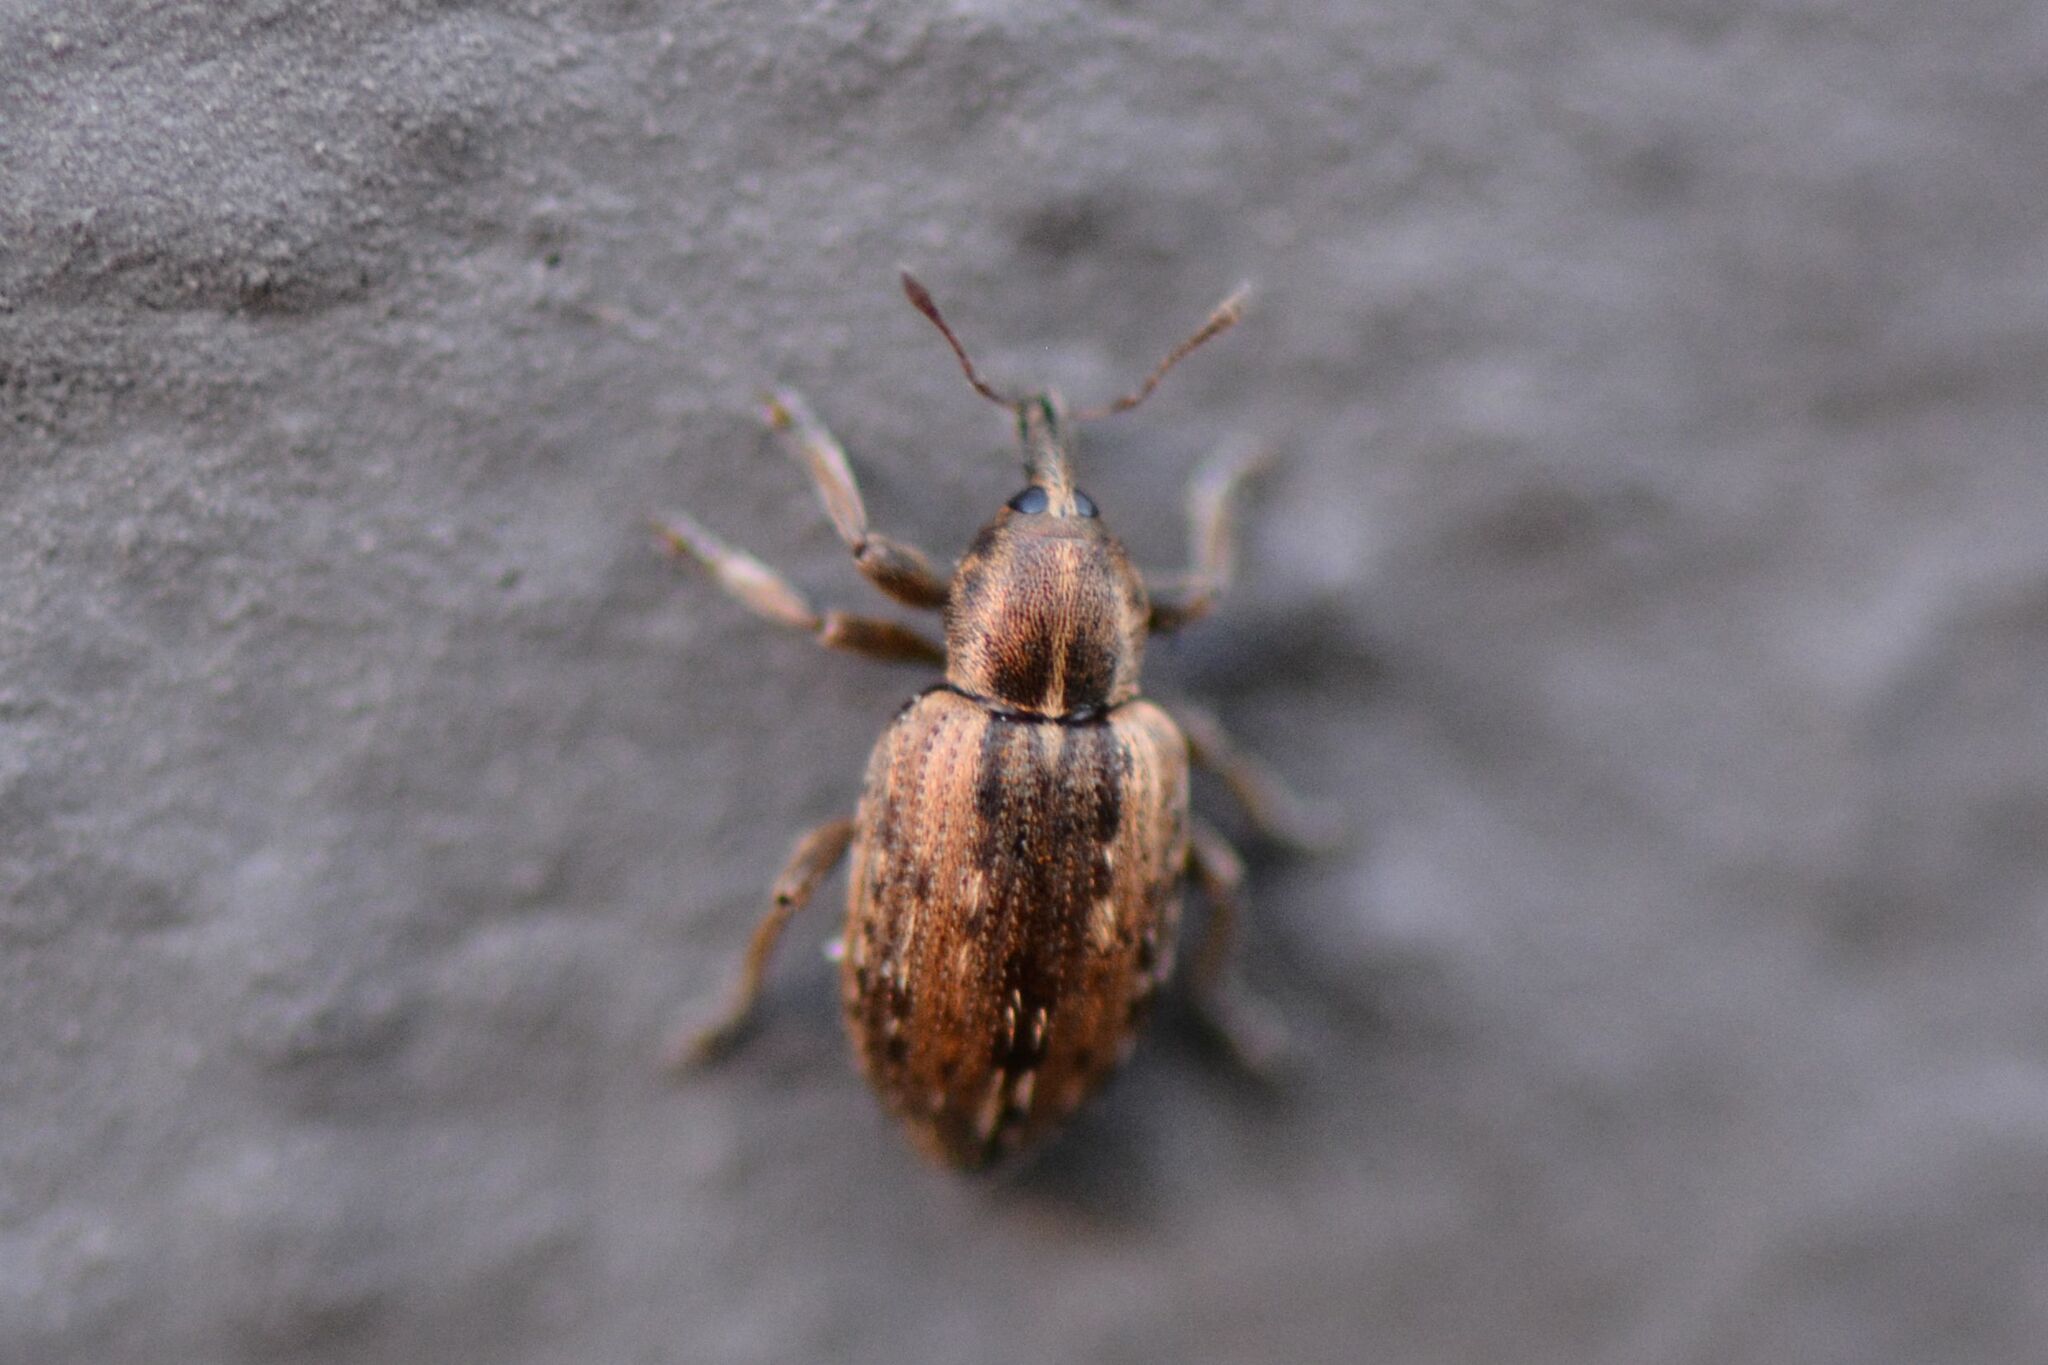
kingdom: Animalia
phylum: Arthropoda
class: Insecta
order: Coleoptera
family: Curculionidae
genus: Hypera
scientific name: Hypera postica
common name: Weevil
